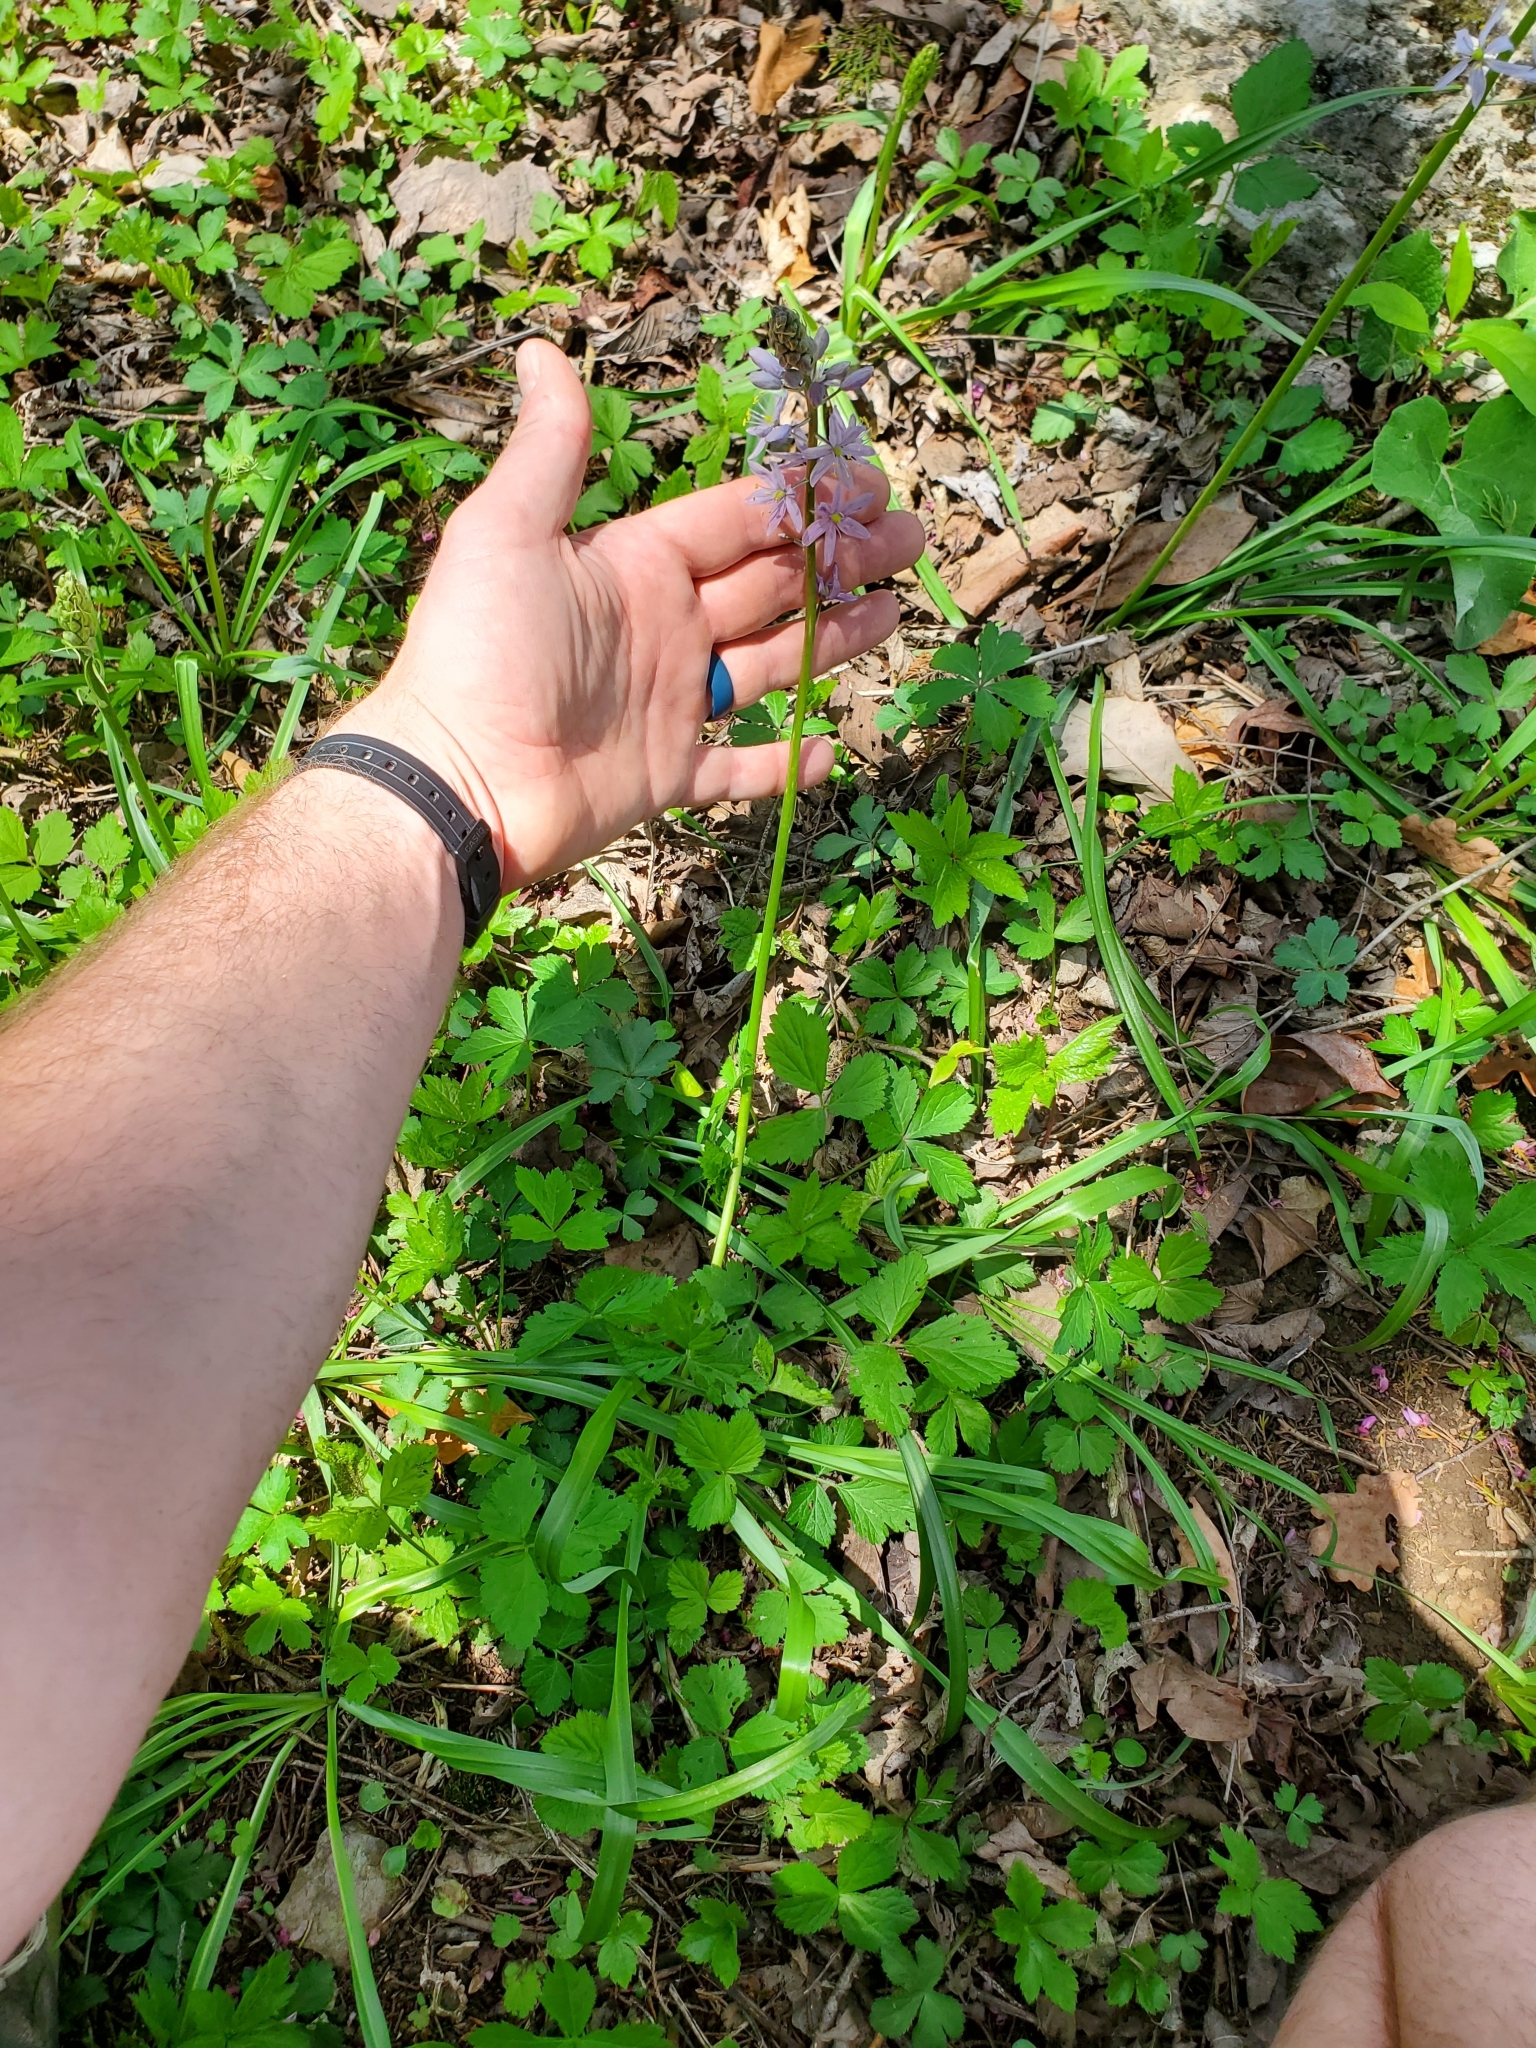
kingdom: Plantae
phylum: Tracheophyta
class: Liliopsida
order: Asparagales
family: Asparagaceae
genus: Camassia
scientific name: Camassia scilloides
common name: Wild hyacinth
